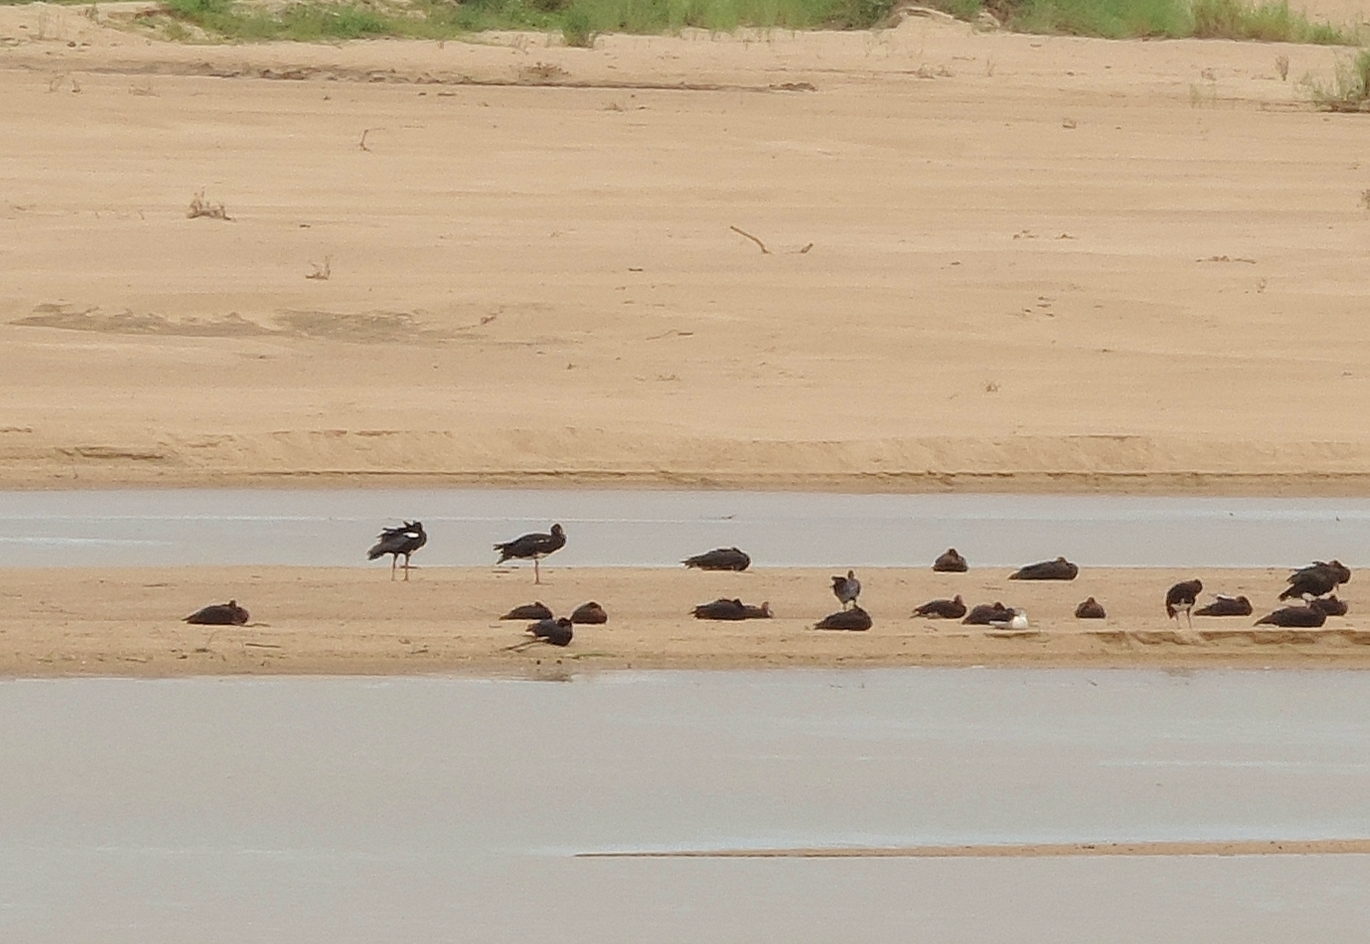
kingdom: Animalia
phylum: Chordata
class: Aves
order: Anseriformes
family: Anatidae
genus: Plectropterus
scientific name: Plectropterus gambensis
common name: Spur-winged goose
